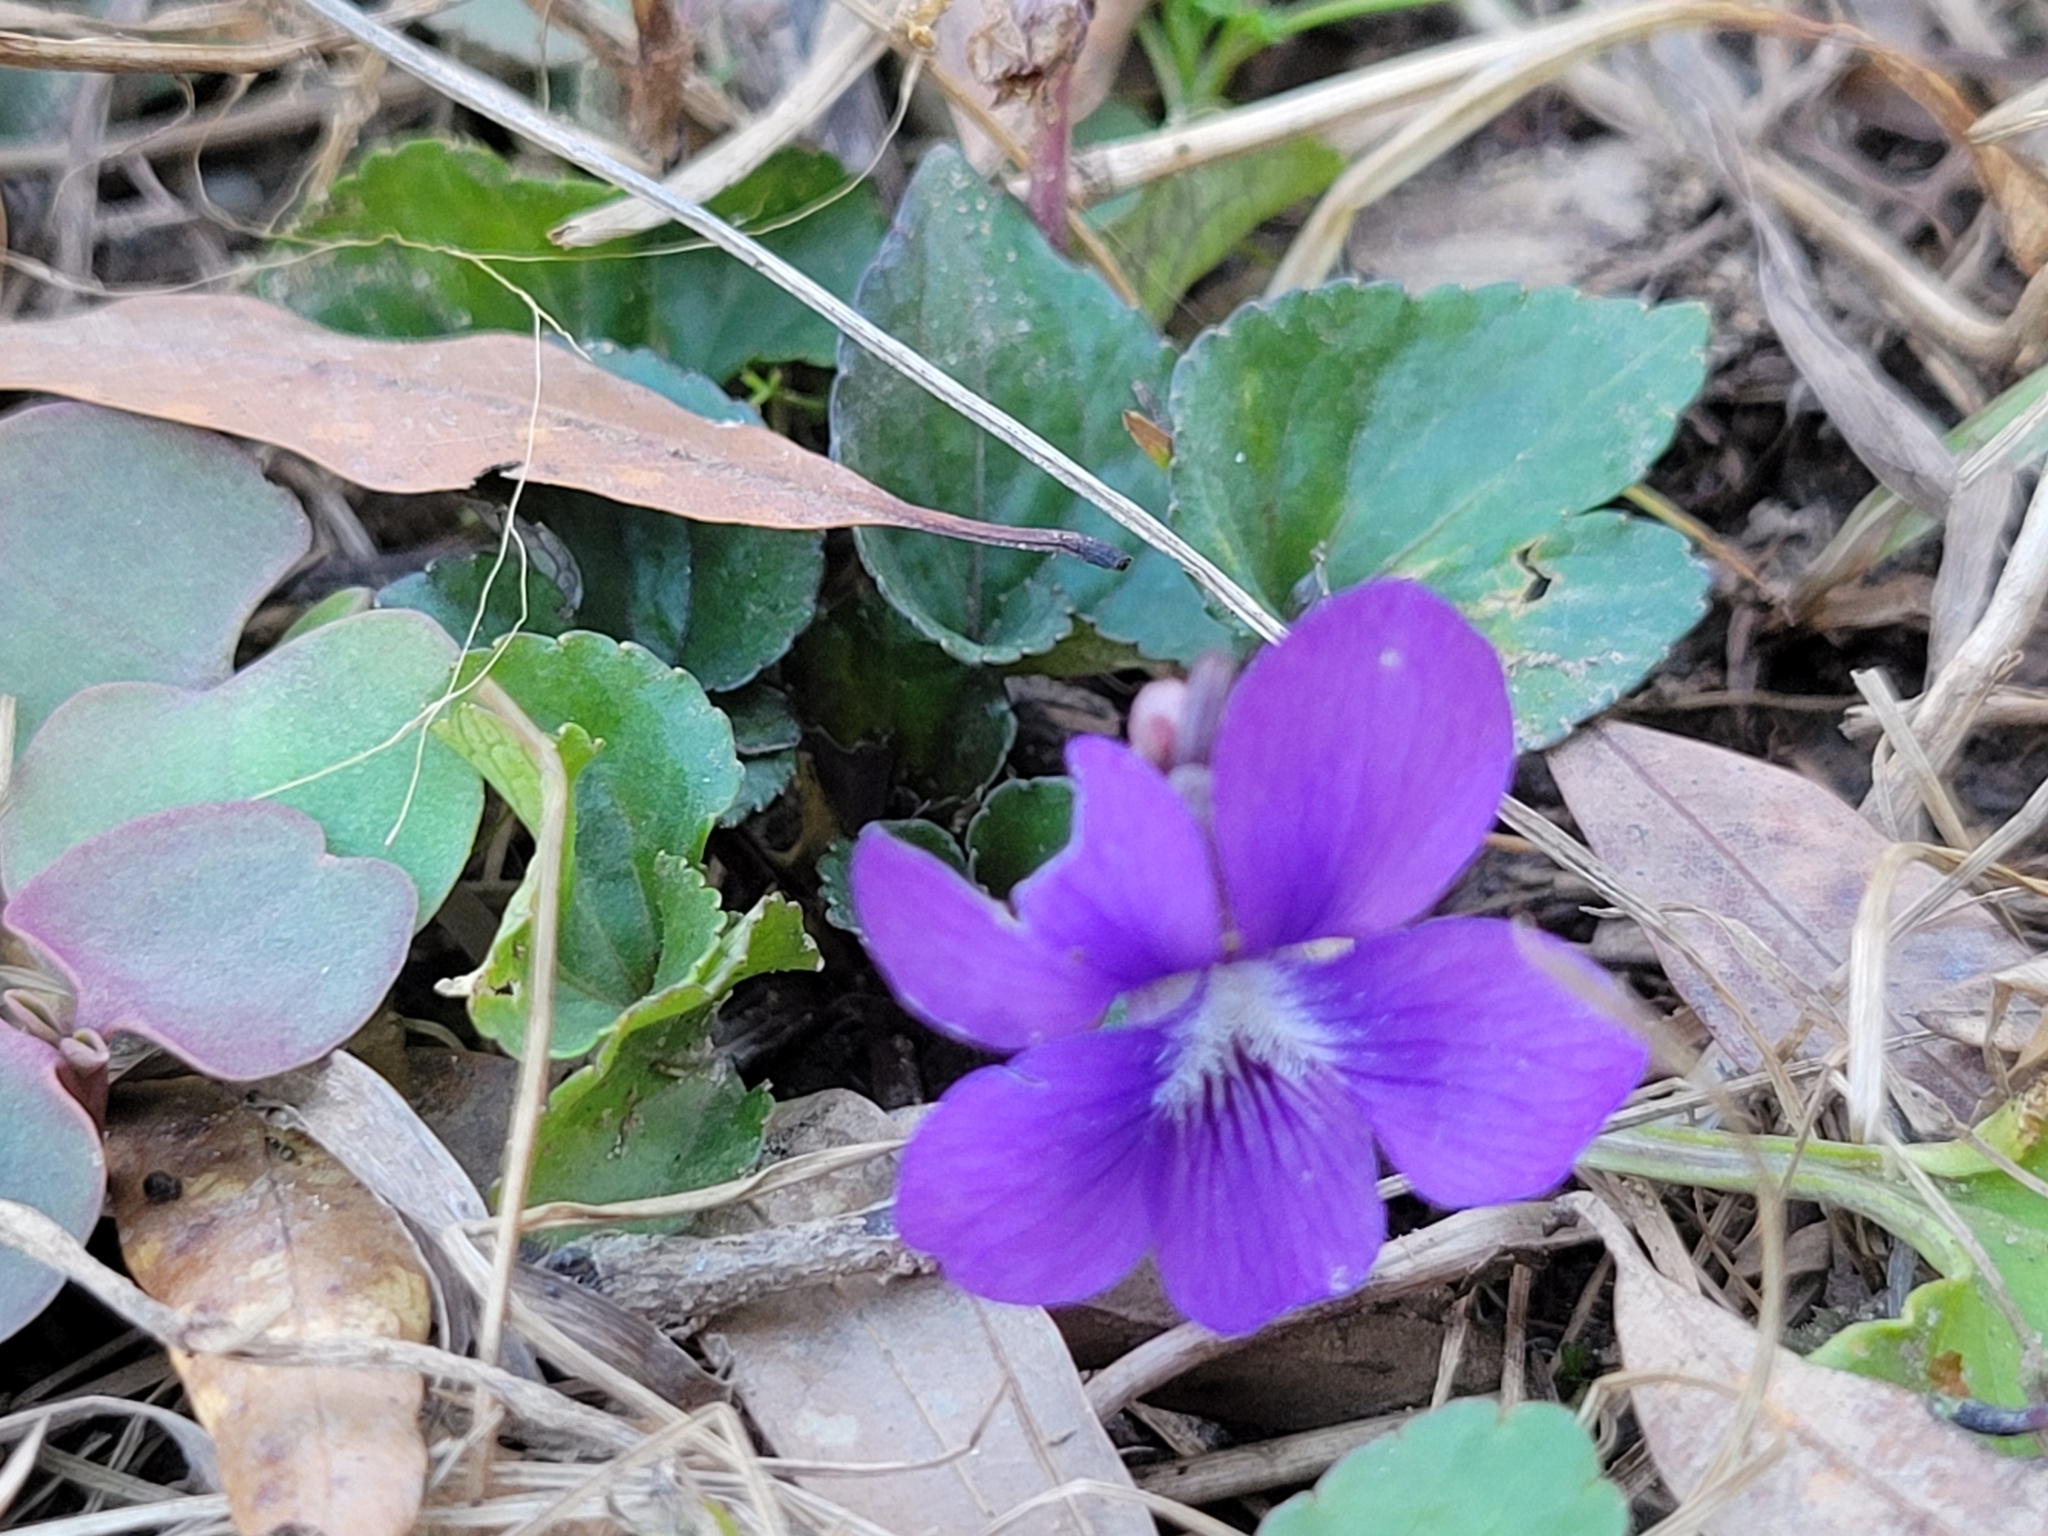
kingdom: Plantae
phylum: Tracheophyta
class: Magnoliopsida
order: Malpighiales
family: Violaceae
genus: Viola
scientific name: Viola sororia
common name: Dooryard violet
